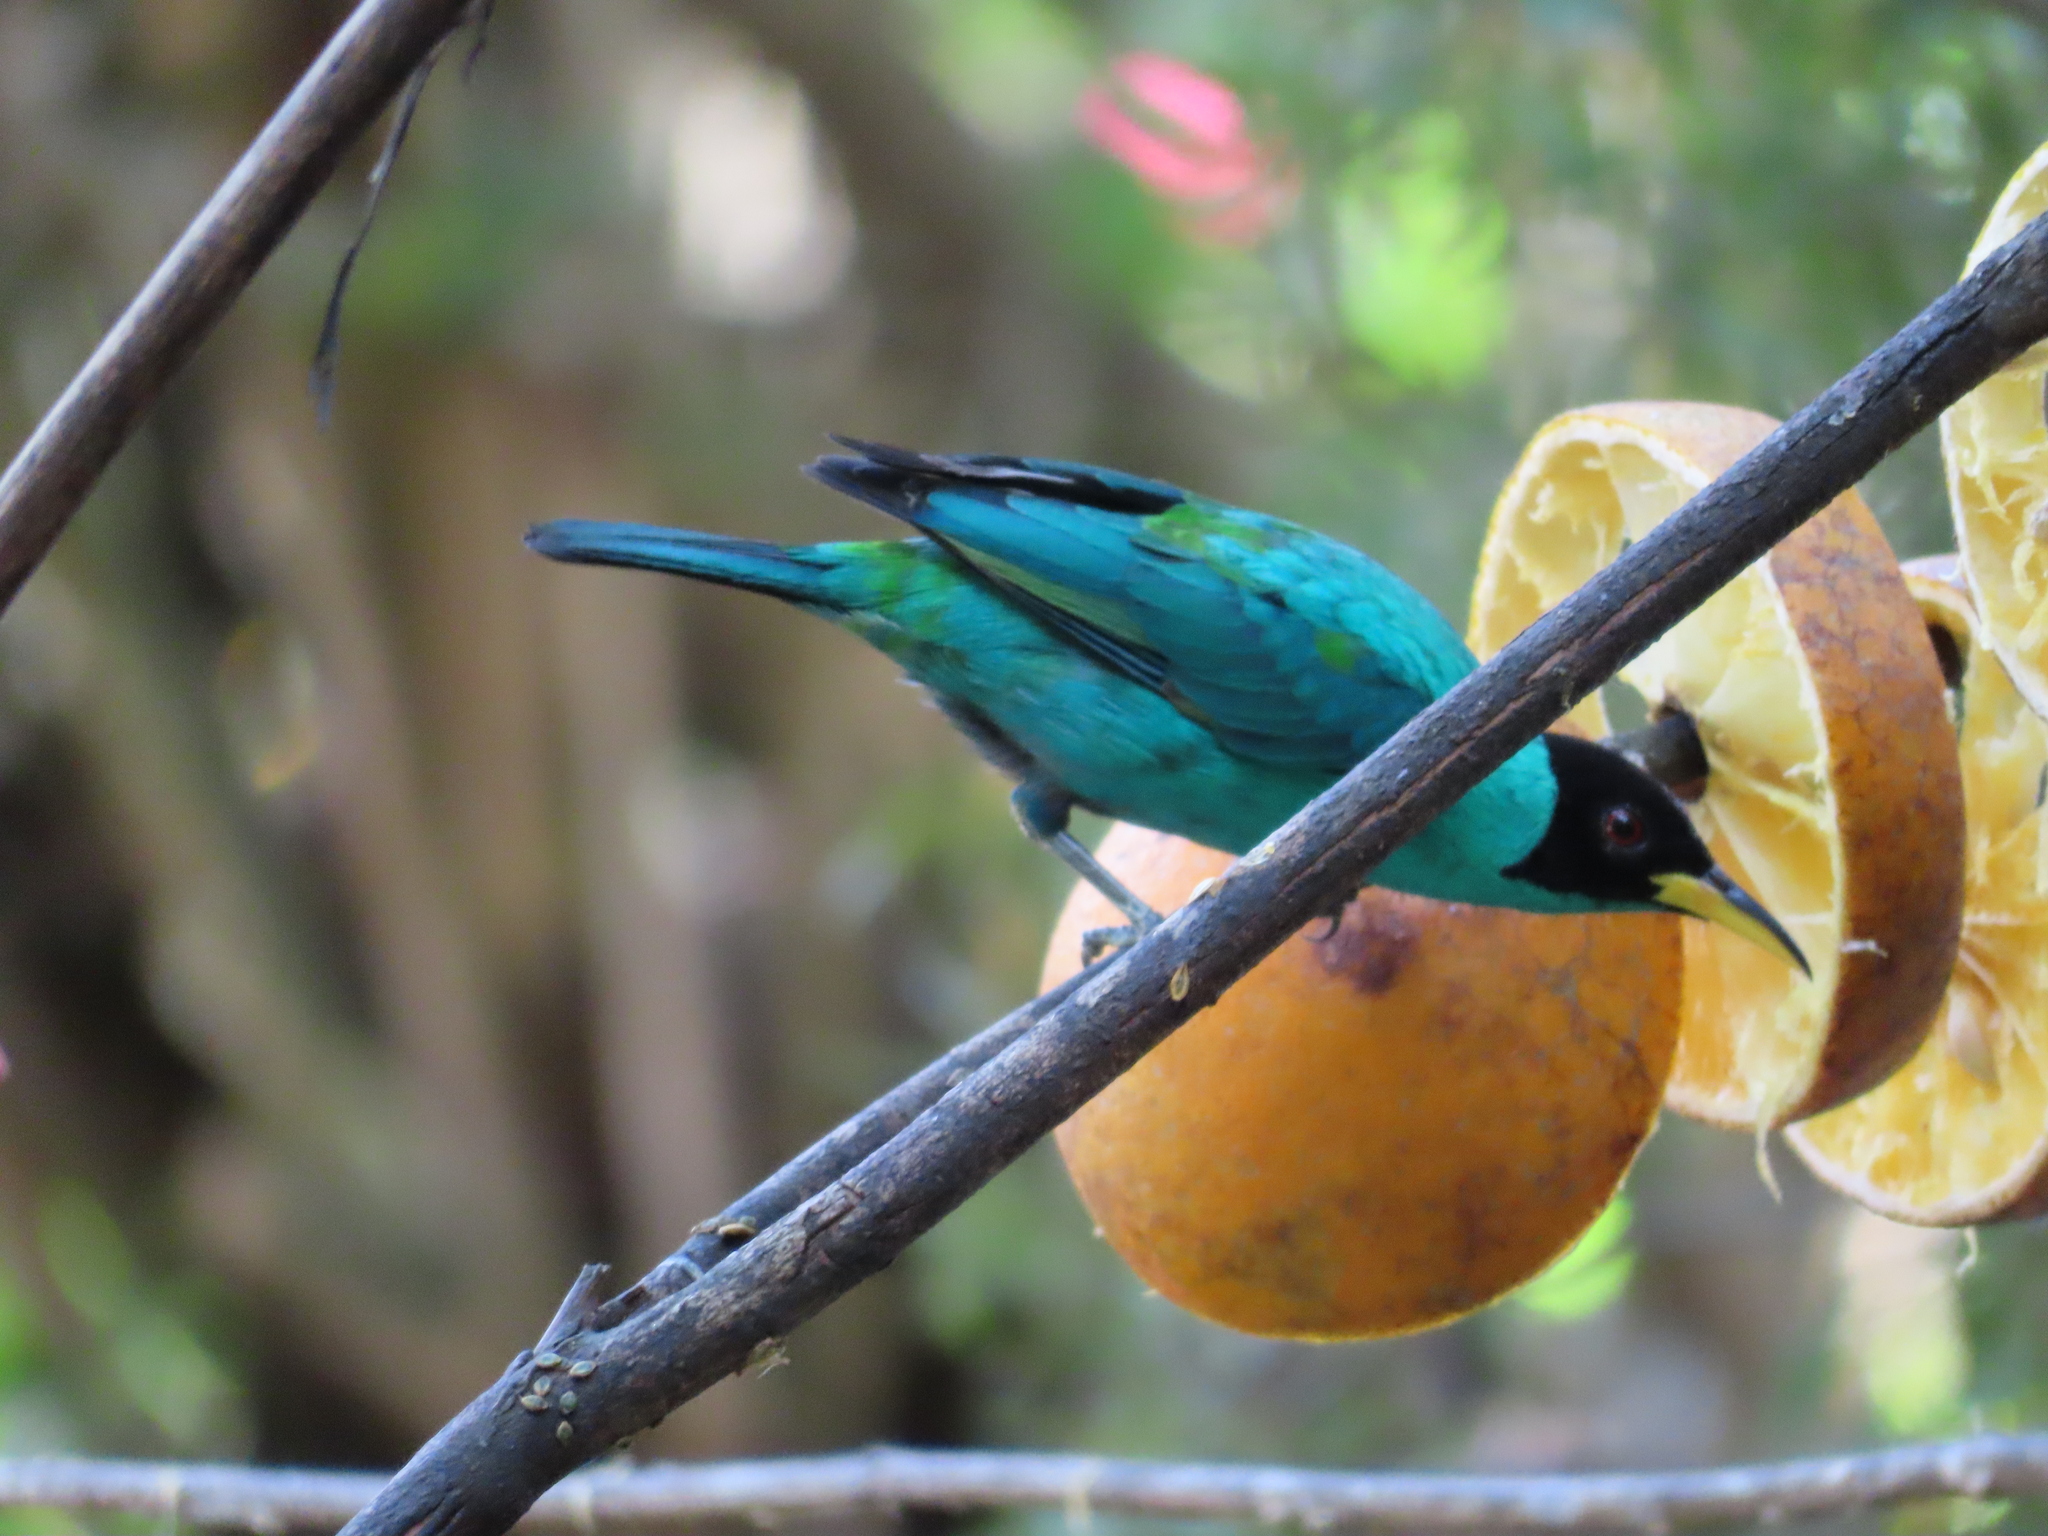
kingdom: Animalia
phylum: Chordata
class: Aves
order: Passeriformes
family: Thraupidae
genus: Chlorophanes
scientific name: Chlorophanes spiza
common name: Green honeycreeper
